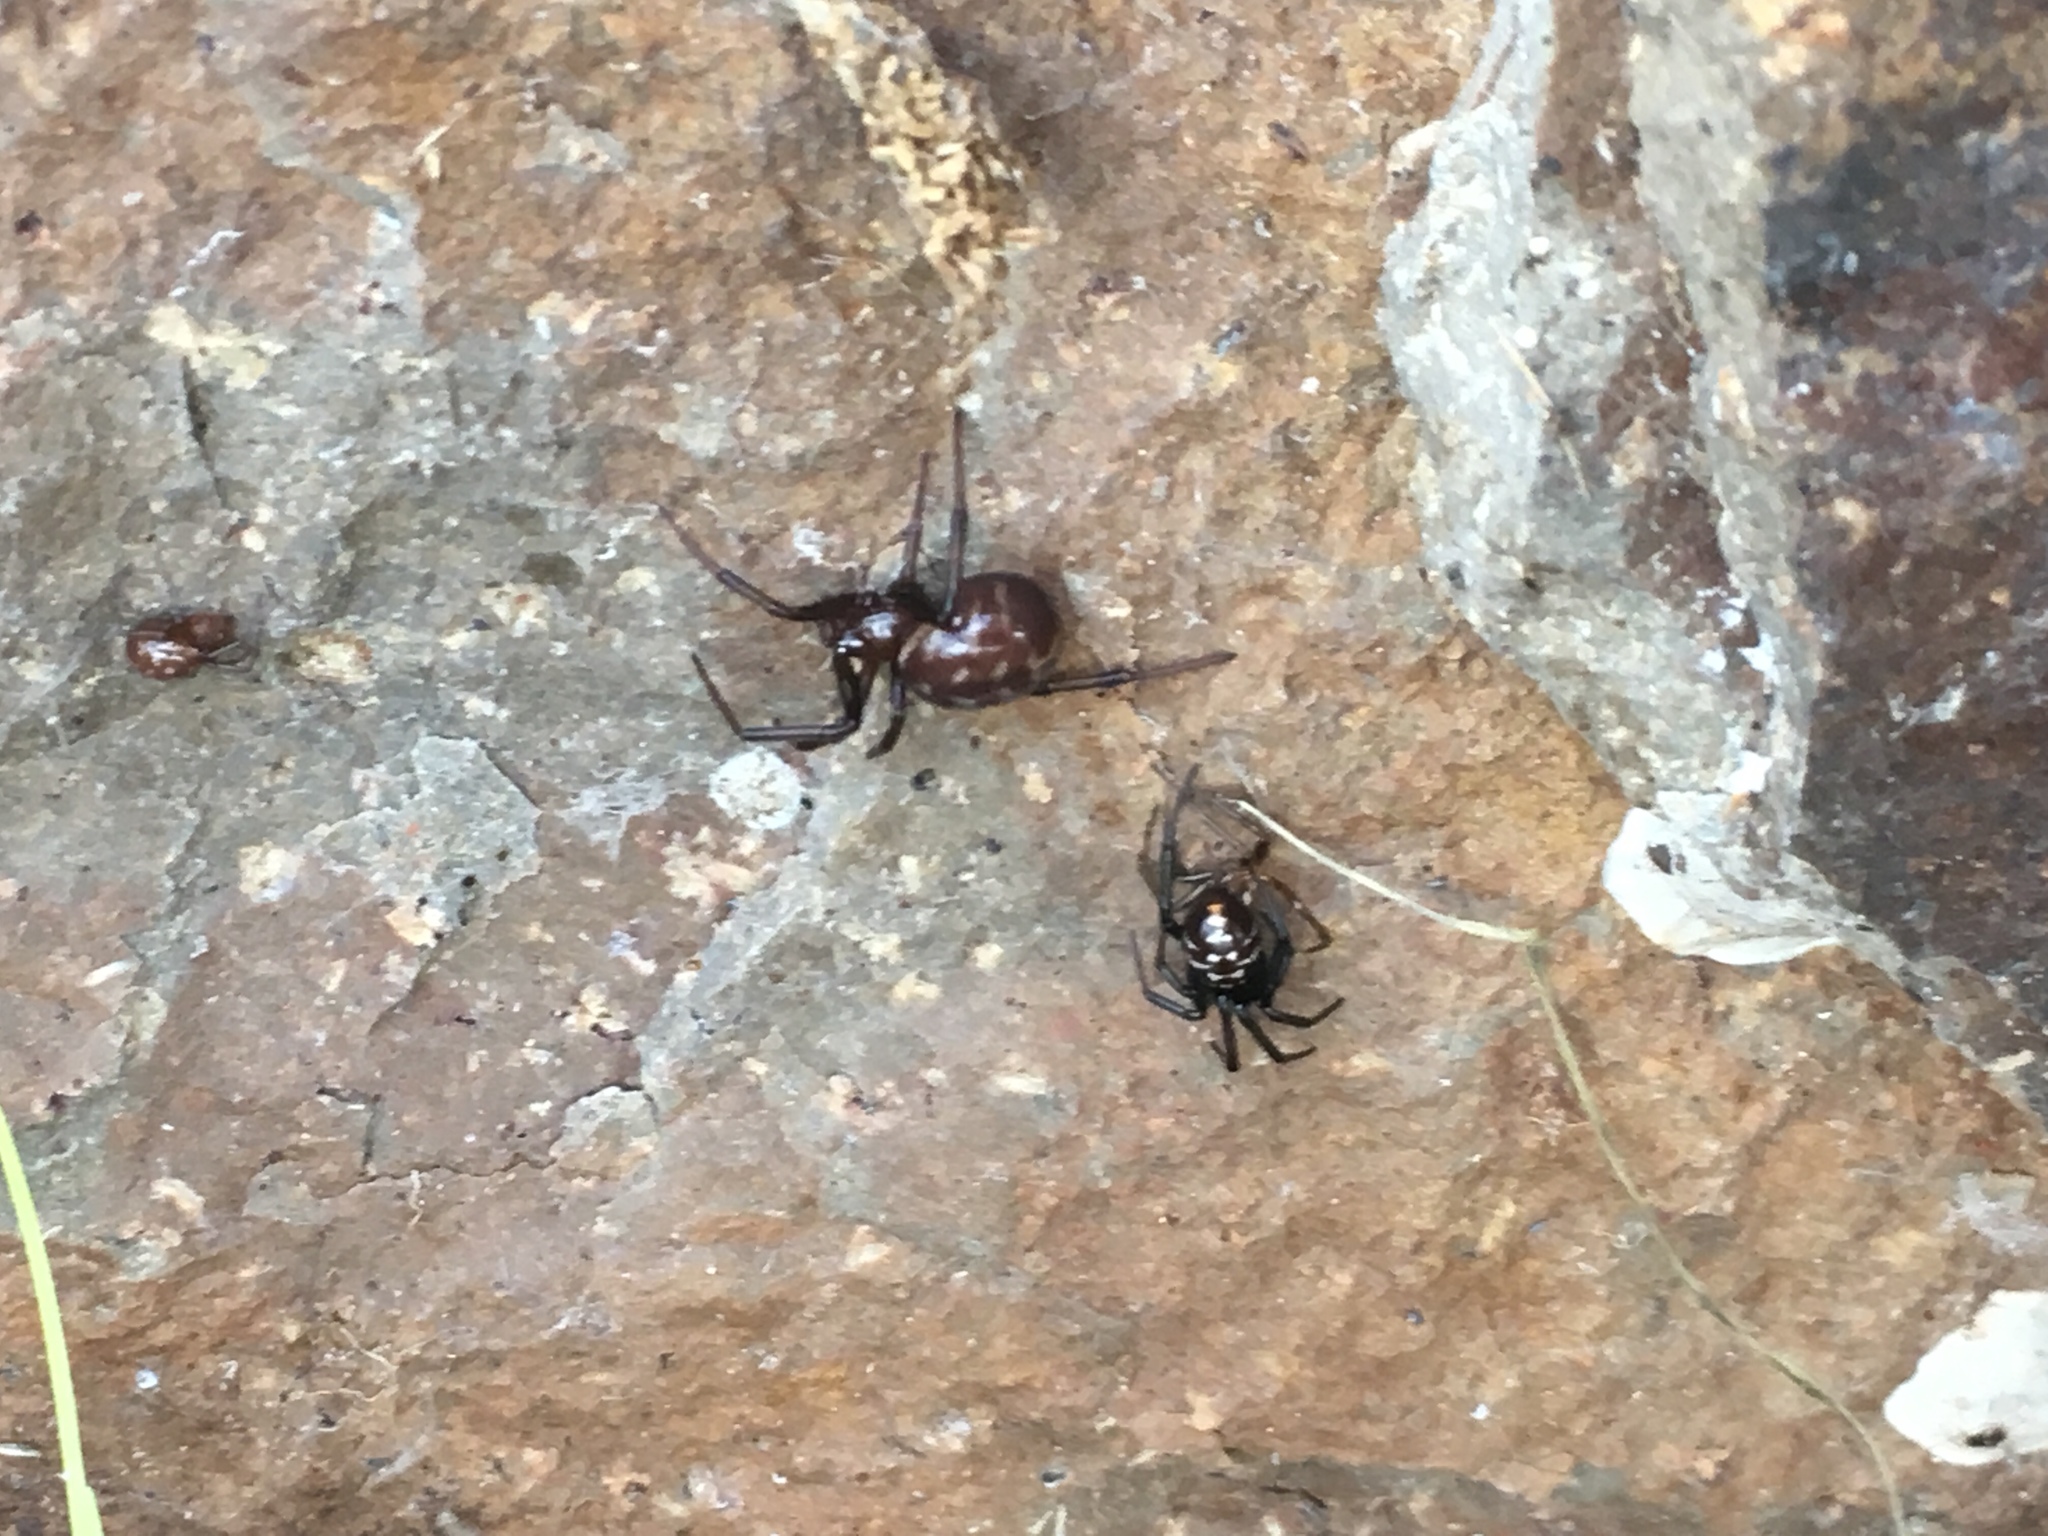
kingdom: Animalia
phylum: Arthropoda
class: Arachnida
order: Araneae
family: Theridiidae
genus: Steatoda
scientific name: Steatoda capensis
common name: Cobweb weaver
